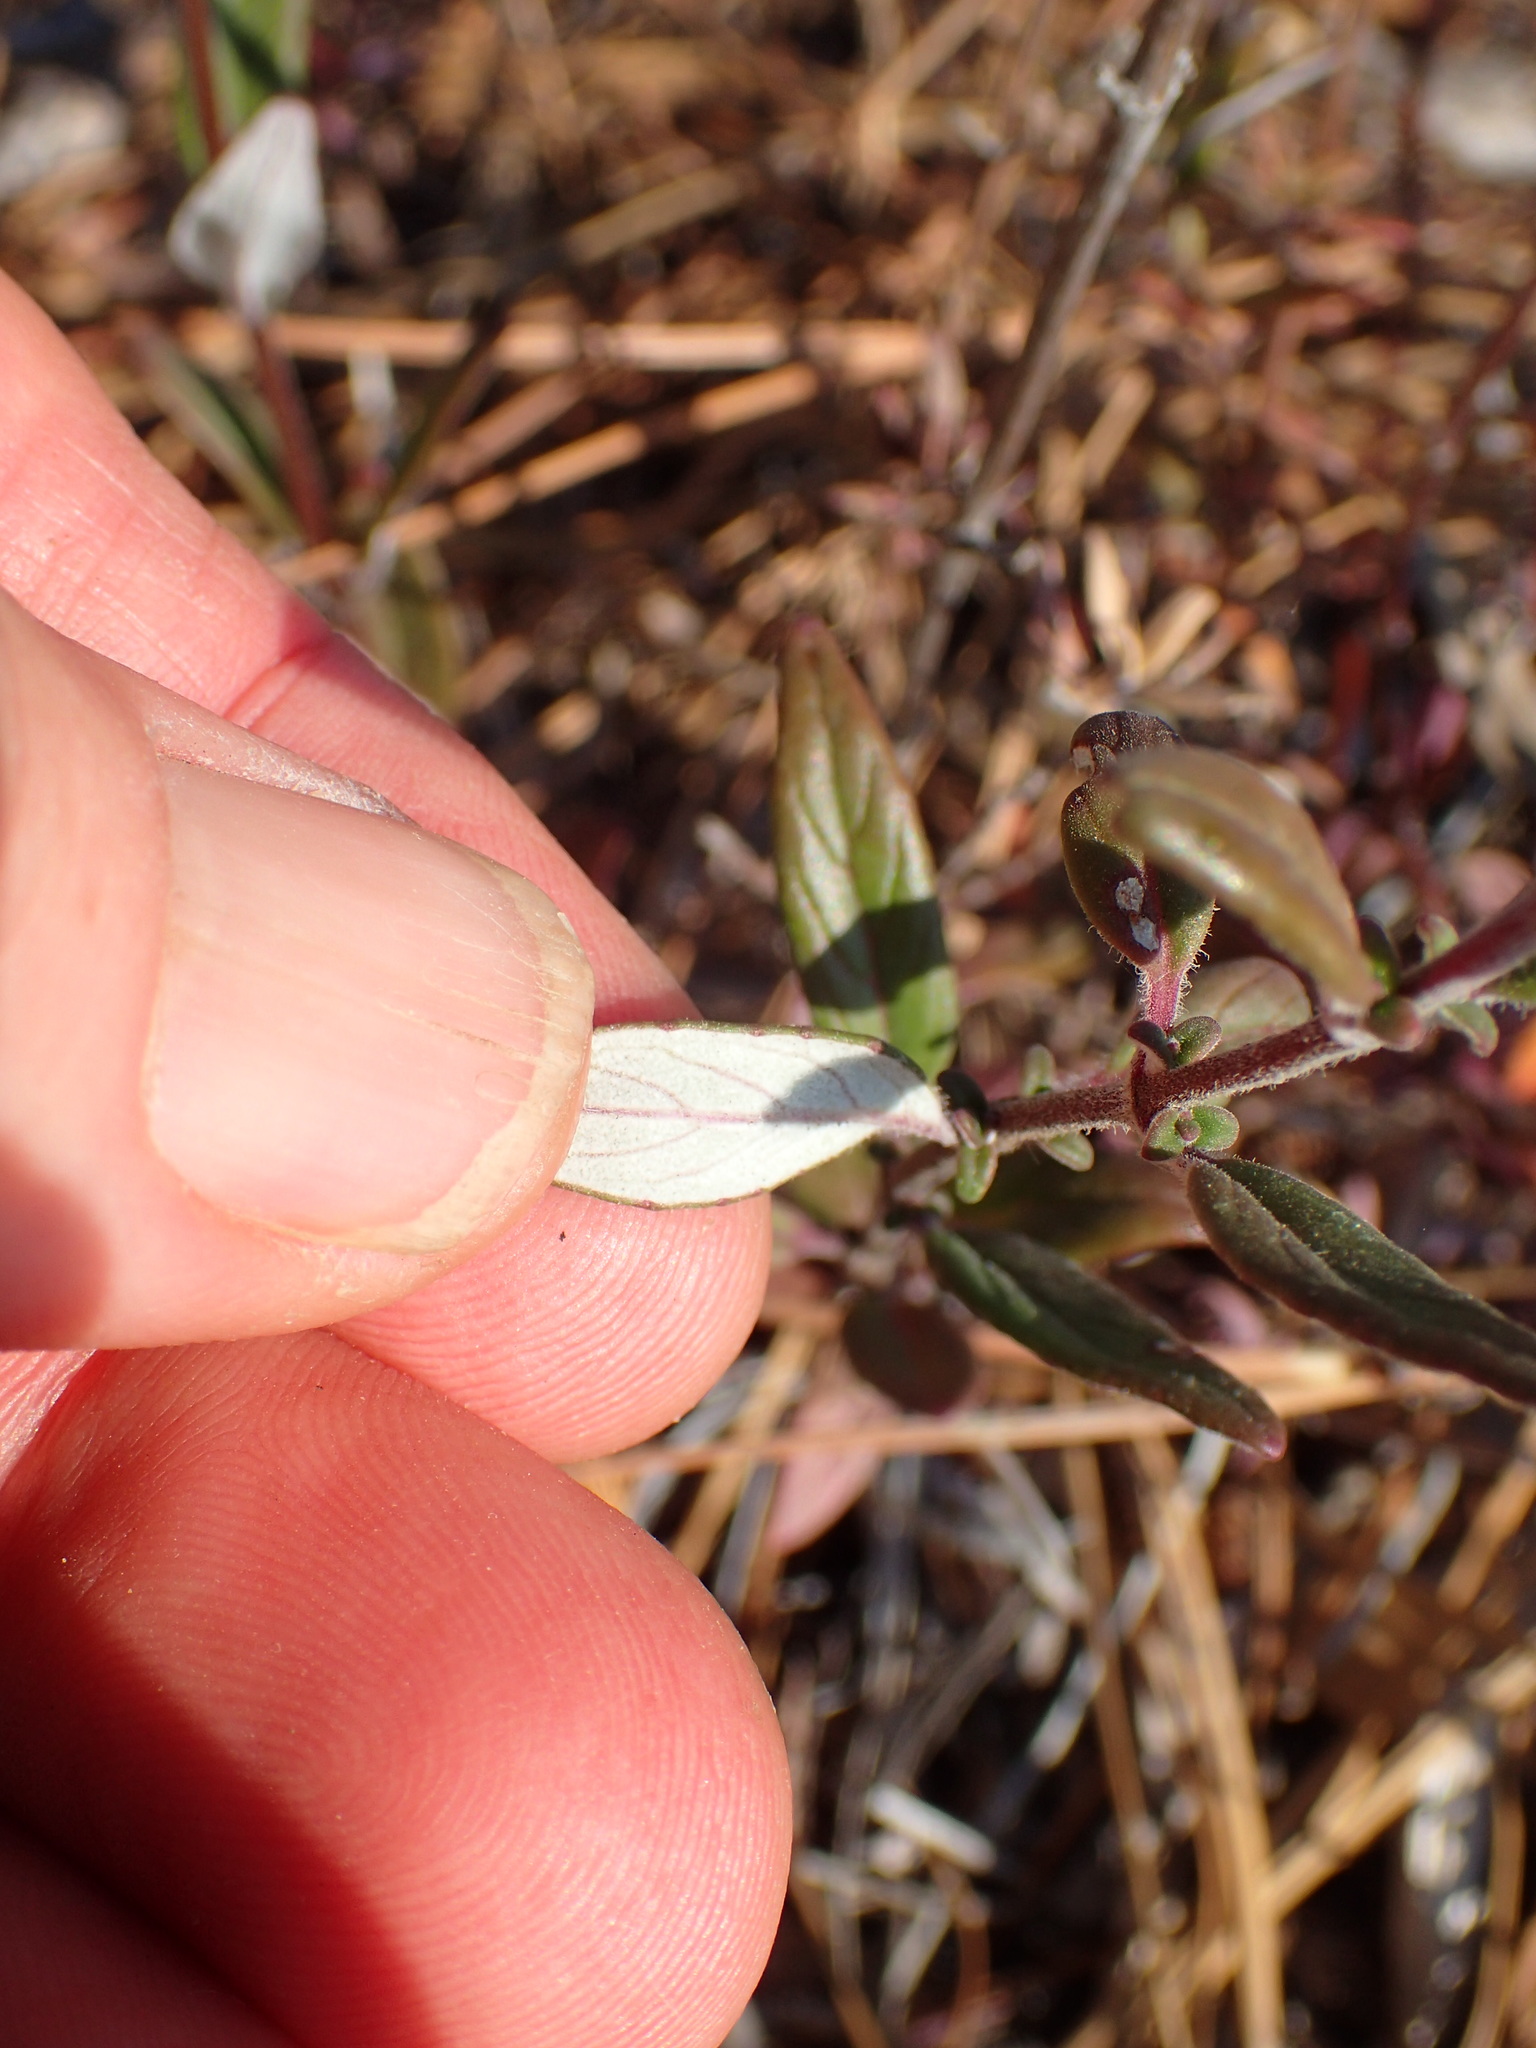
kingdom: Plantae
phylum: Tracheophyta
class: Magnoliopsida
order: Lamiales
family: Lamiaceae
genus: Monardella
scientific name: Monardella hypoleuca
